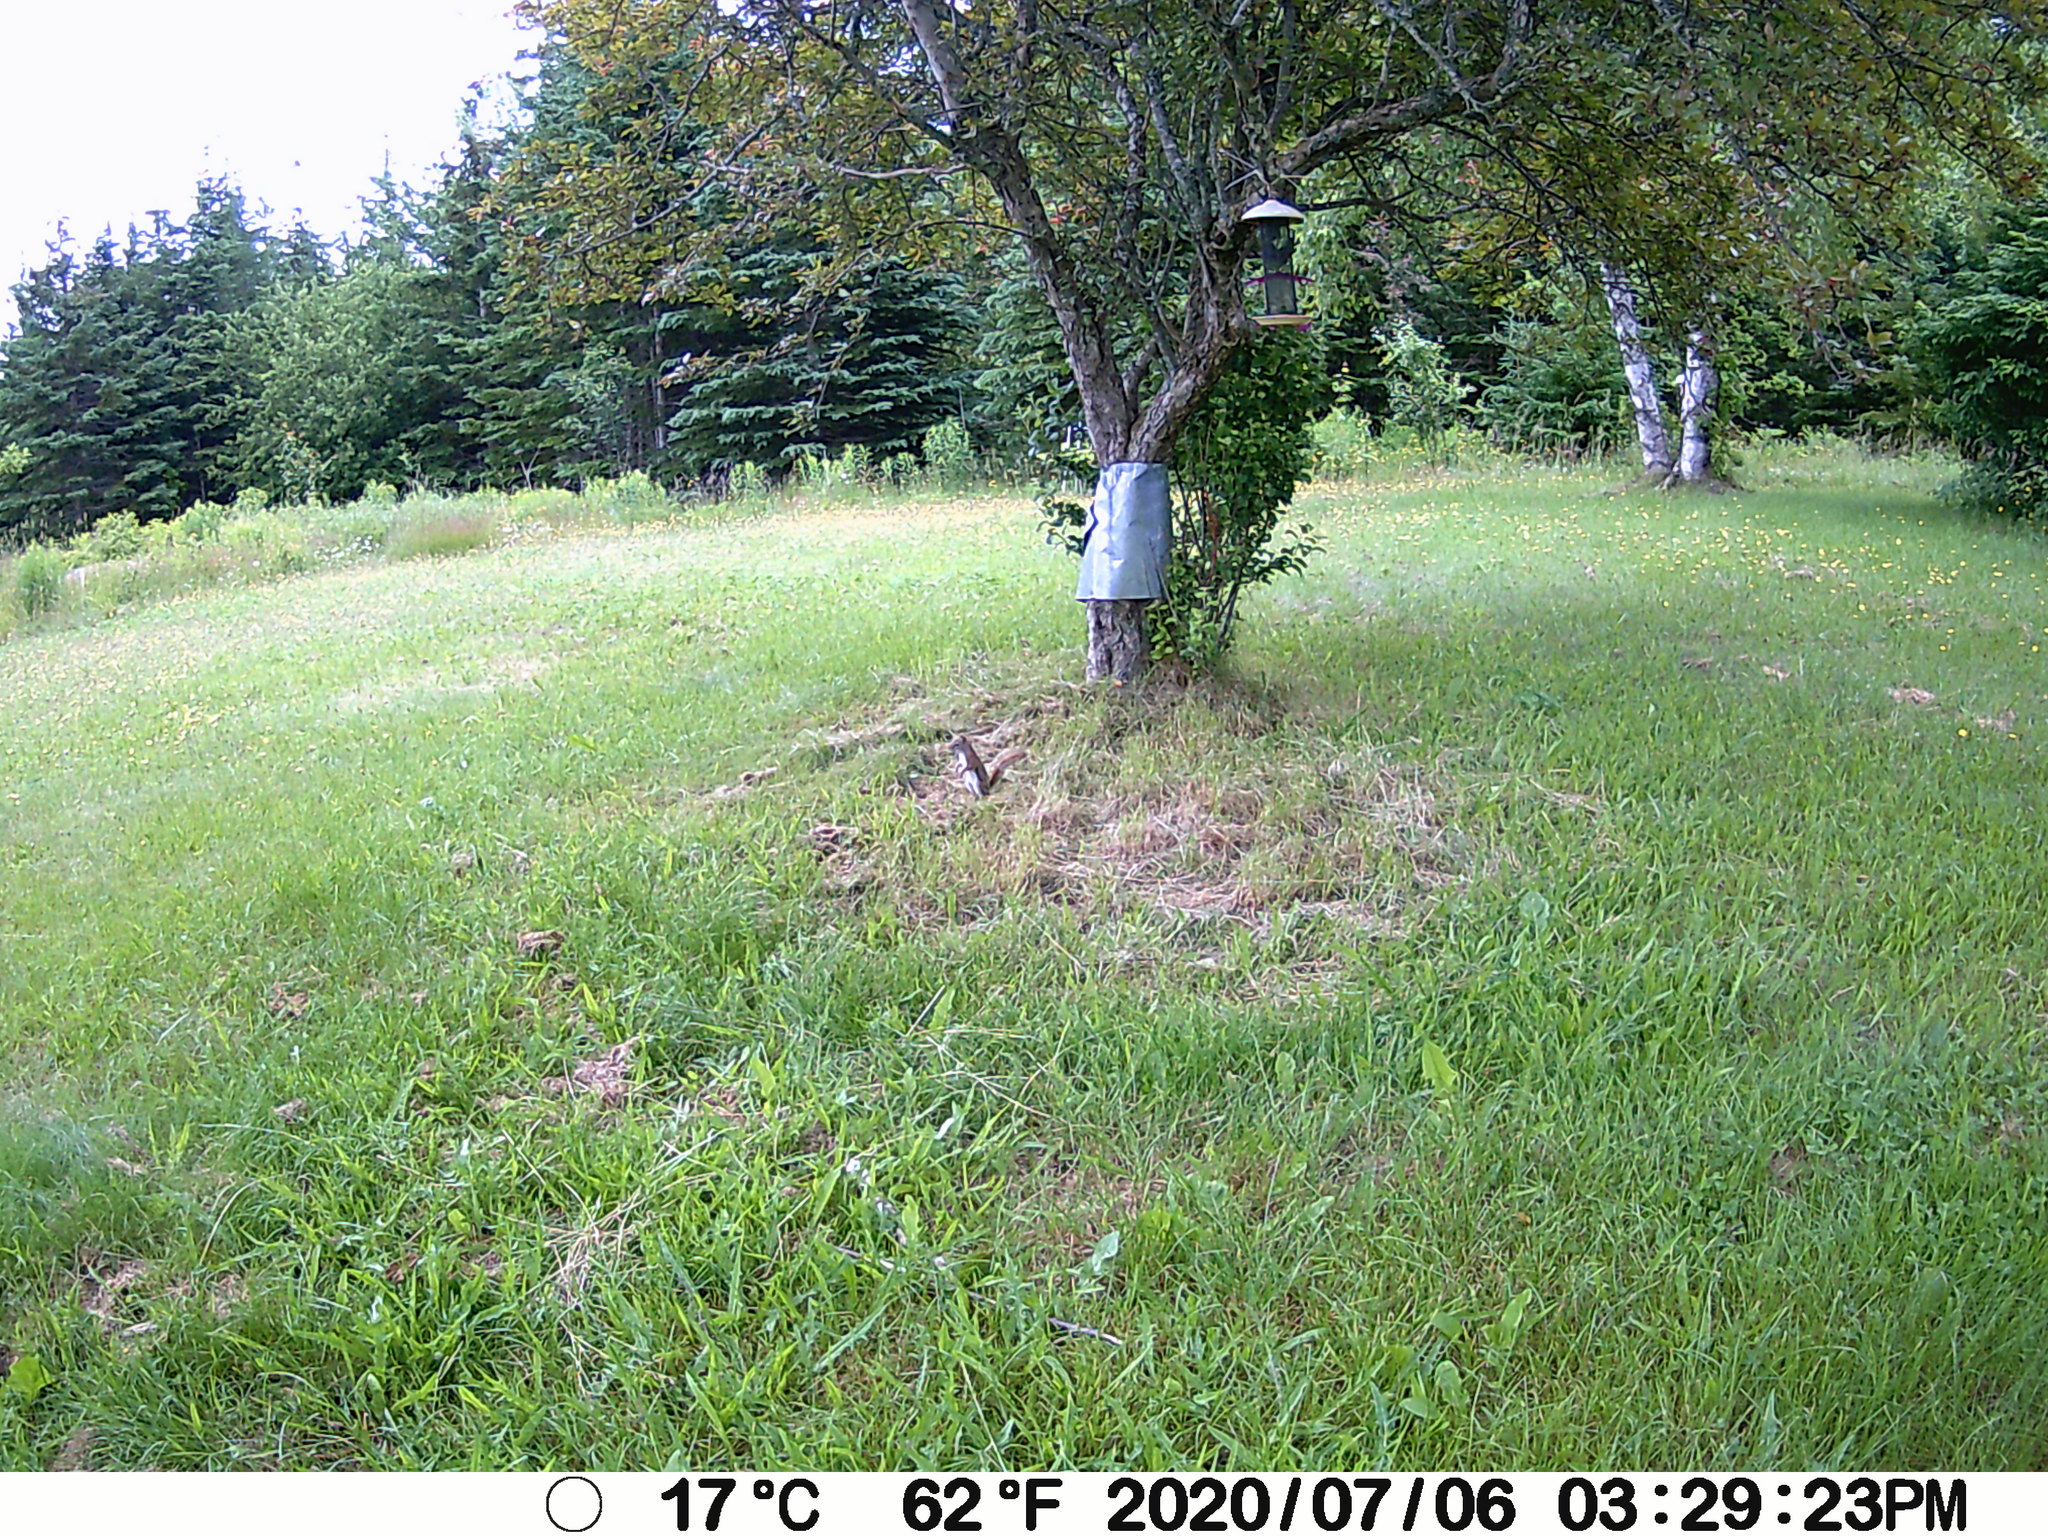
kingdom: Animalia
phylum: Chordata
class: Mammalia
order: Rodentia
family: Sciuridae
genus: Tamiasciurus
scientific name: Tamiasciurus hudsonicus
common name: Red squirrel
